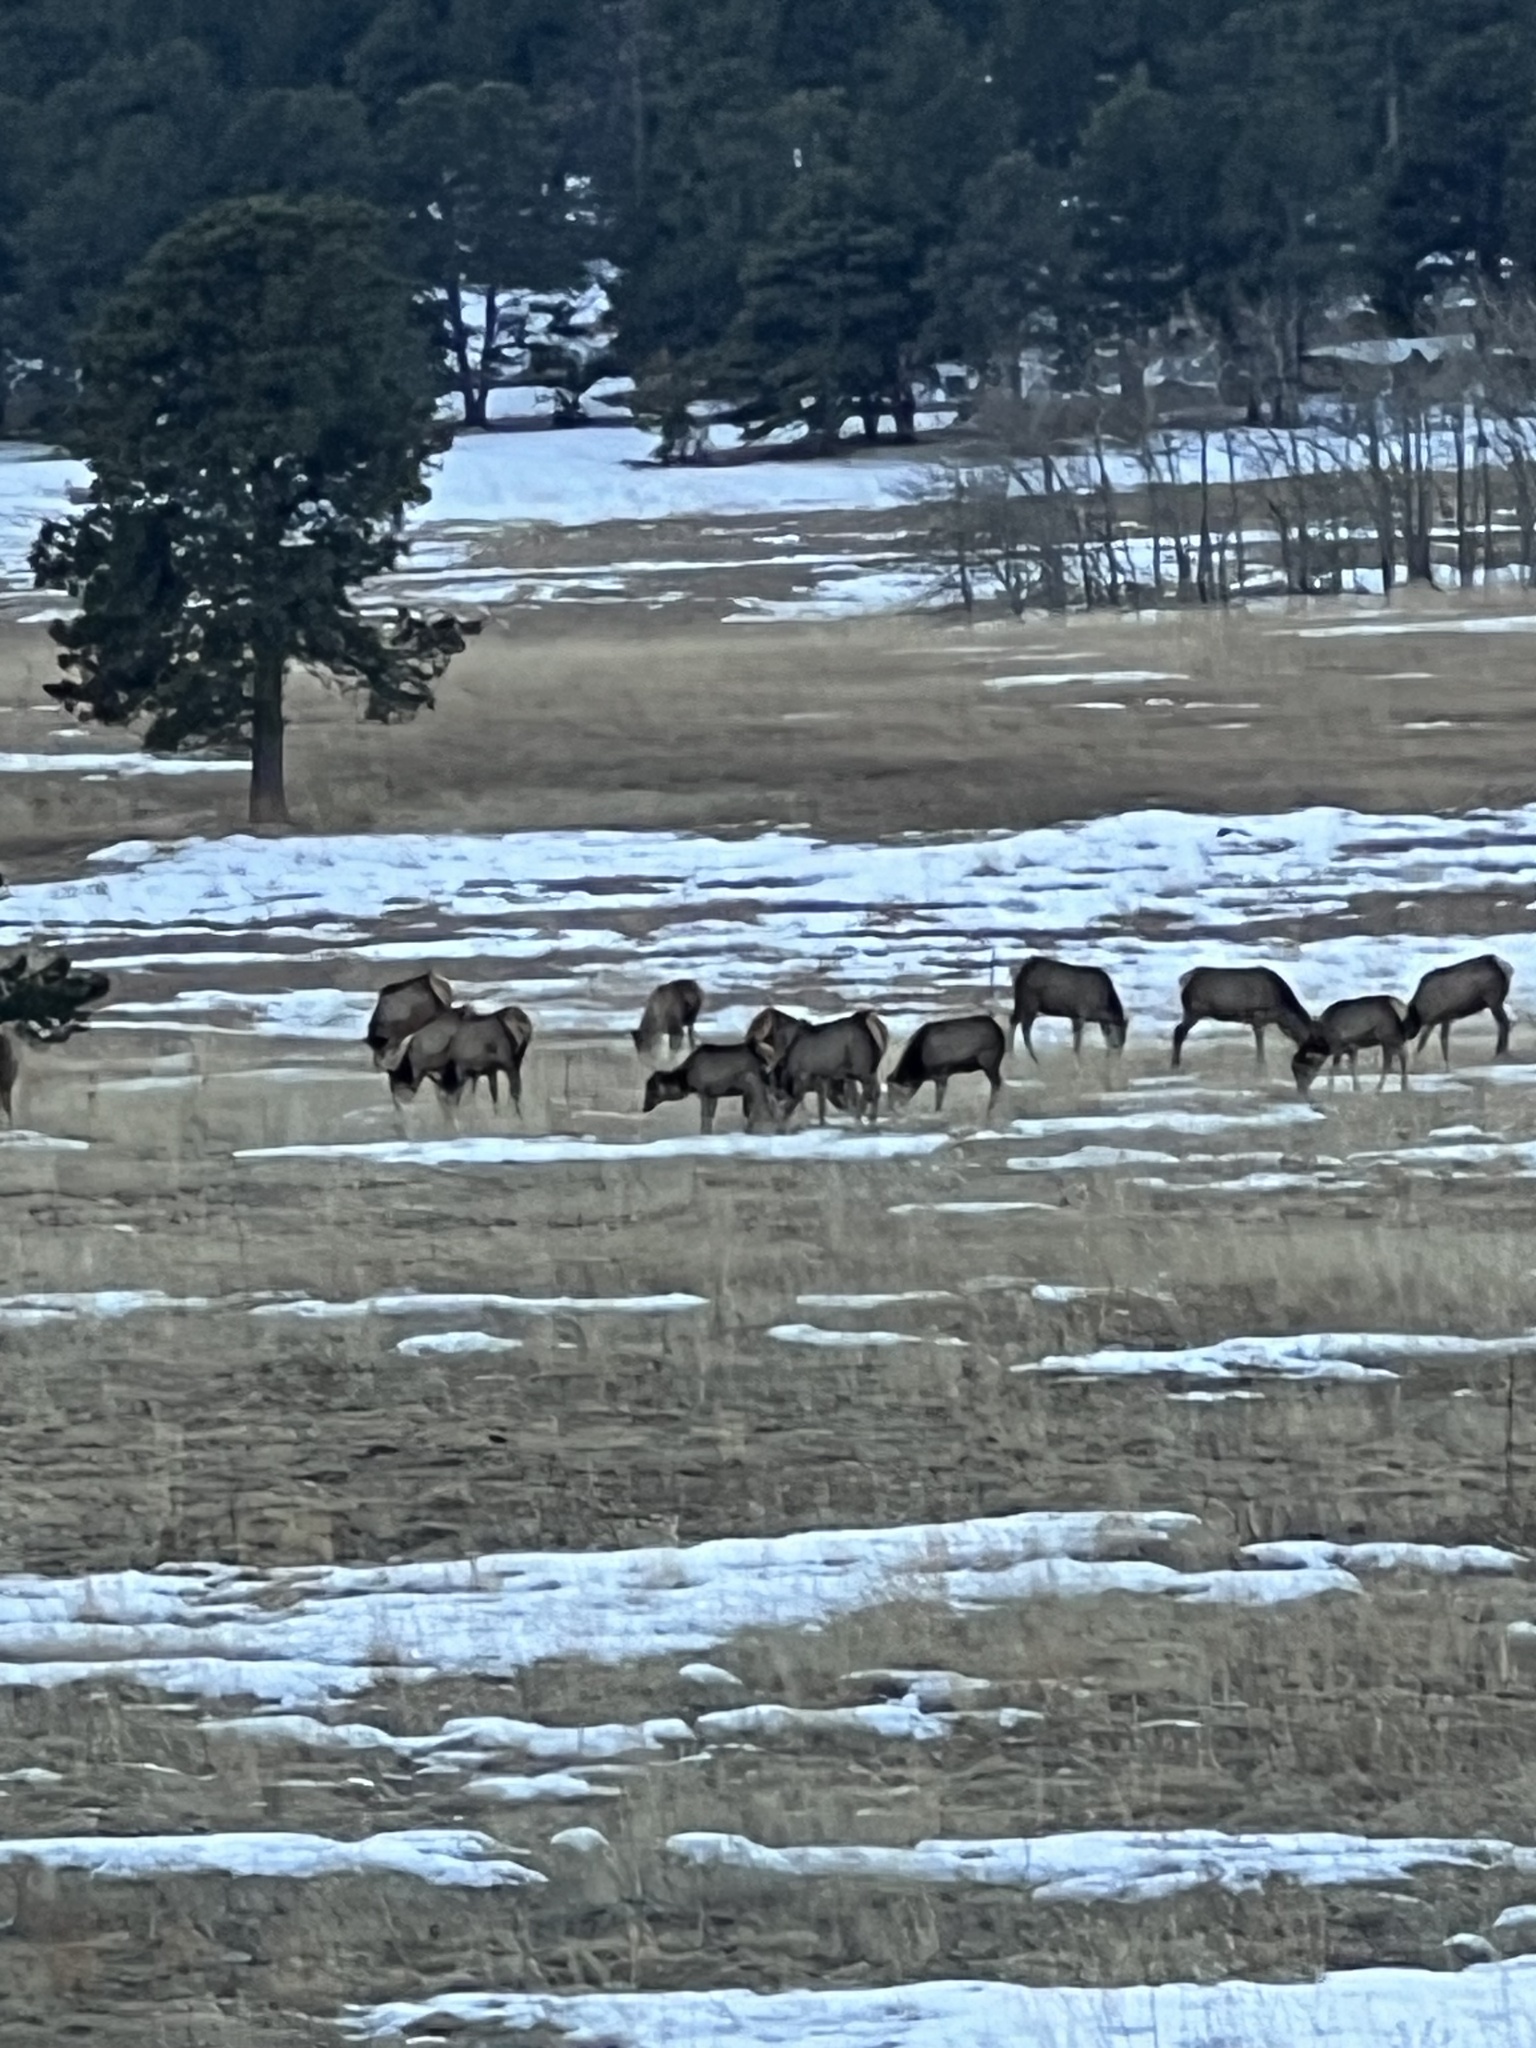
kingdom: Animalia
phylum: Chordata
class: Mammalia
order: Artiodactyla
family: Cervidae
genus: Cervus
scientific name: Cervus elaphus
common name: Red deer
